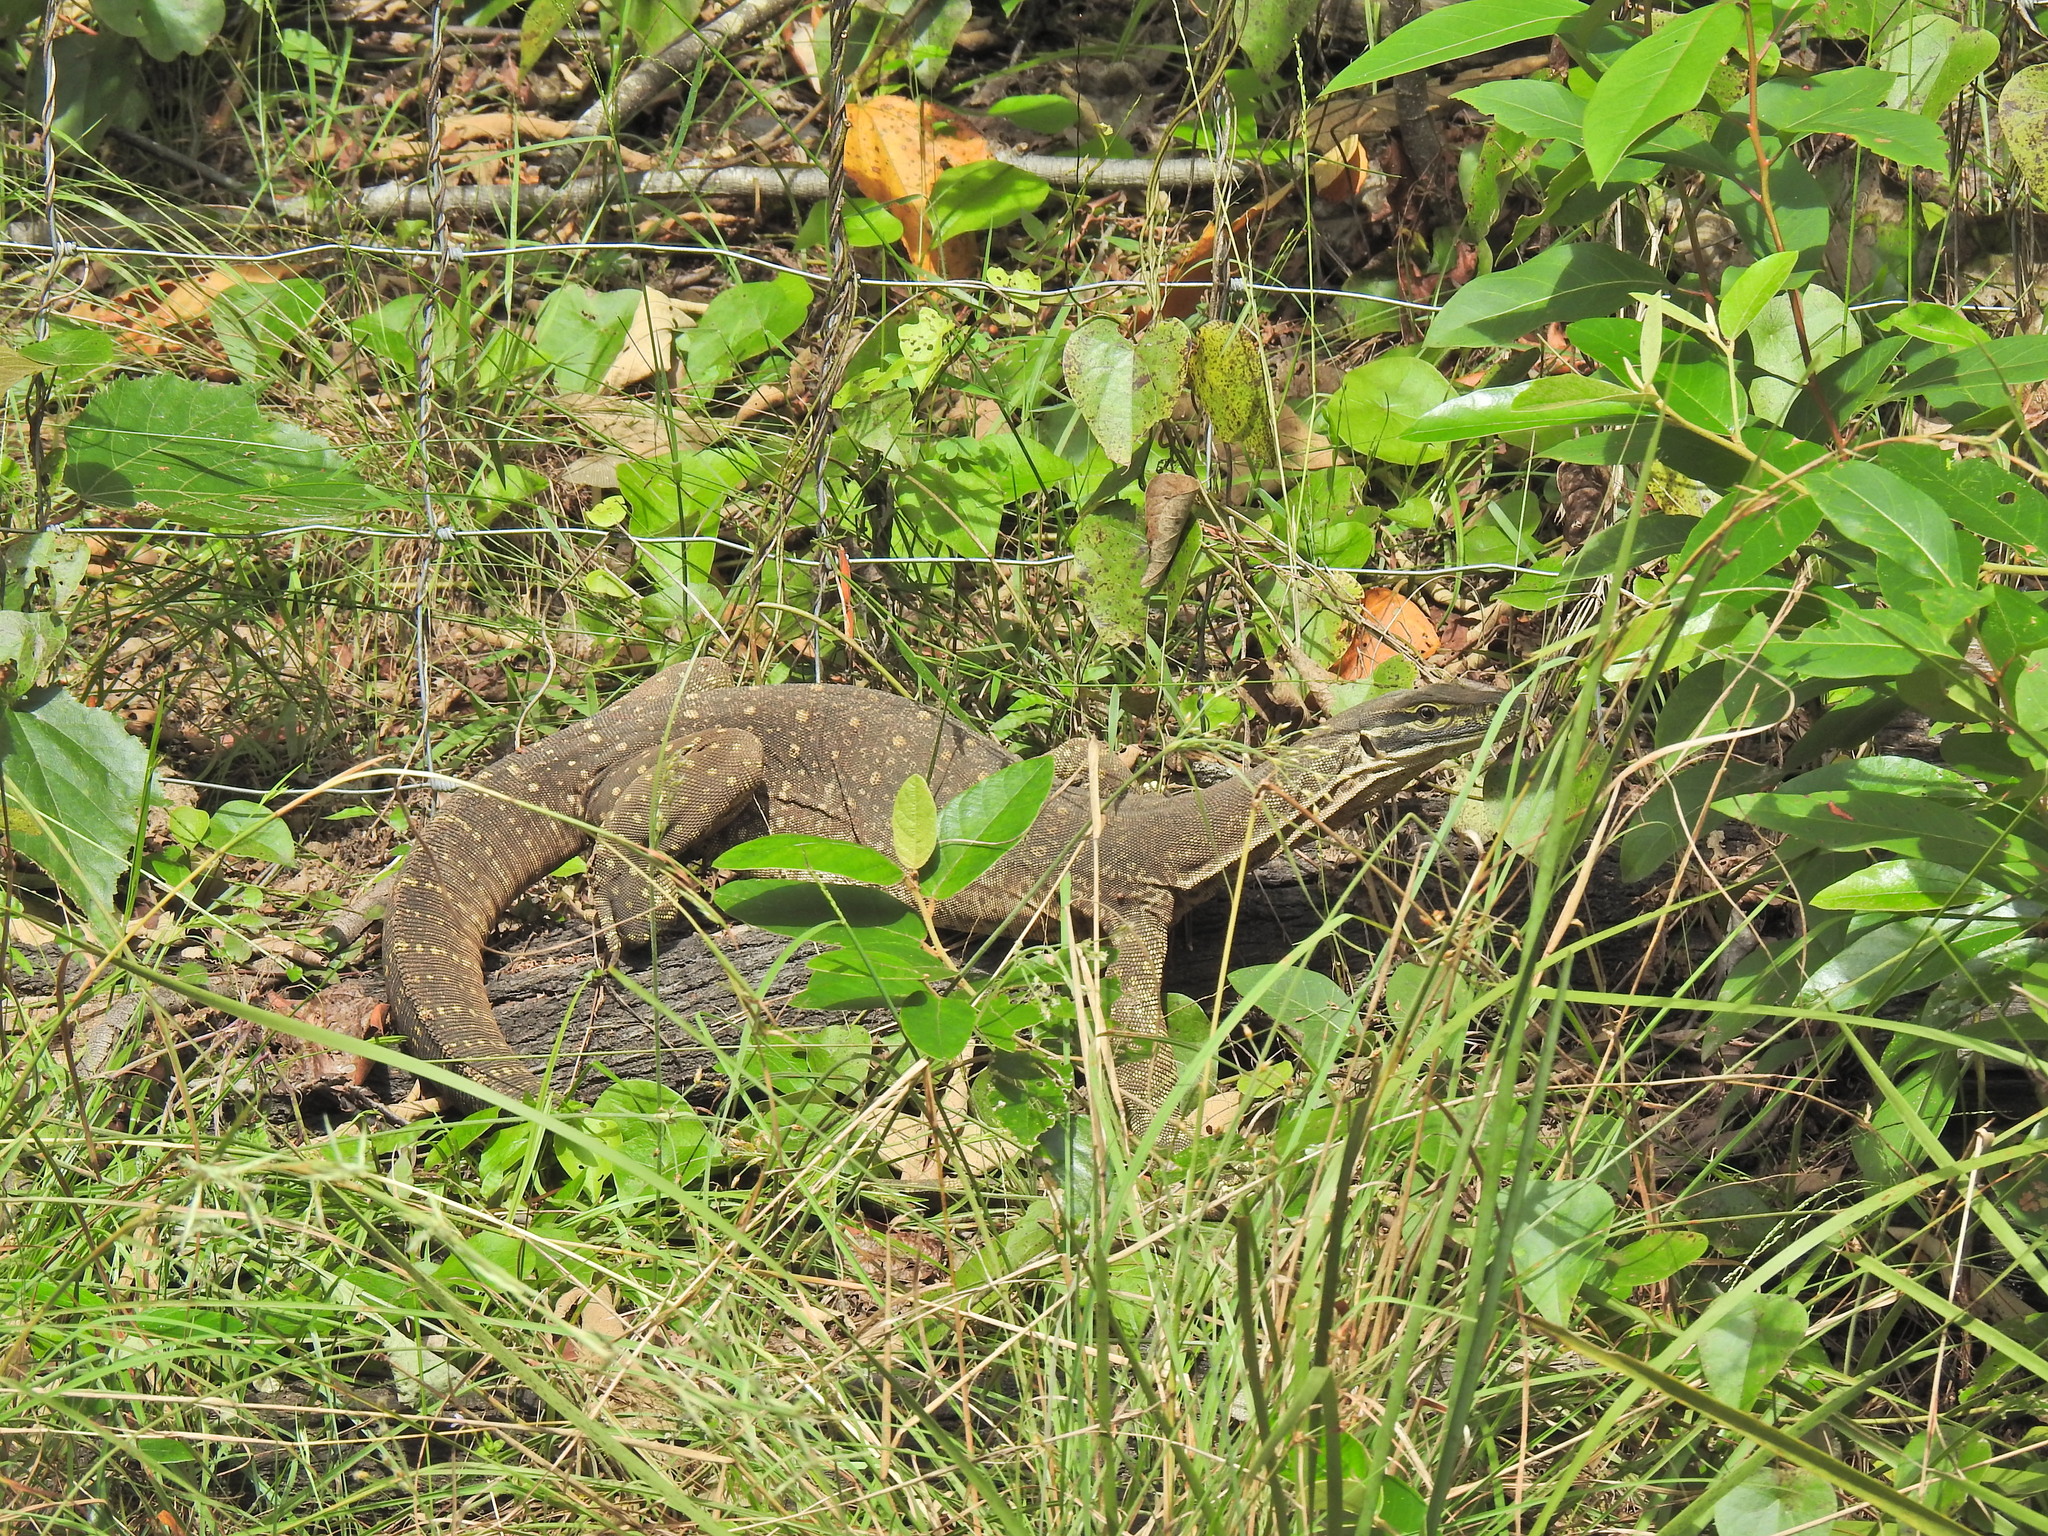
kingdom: Animalia
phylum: Chordata
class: Squamata
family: Varanidae
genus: Varanus
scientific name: Varanus panoptes
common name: Yellow-spotted monitor
